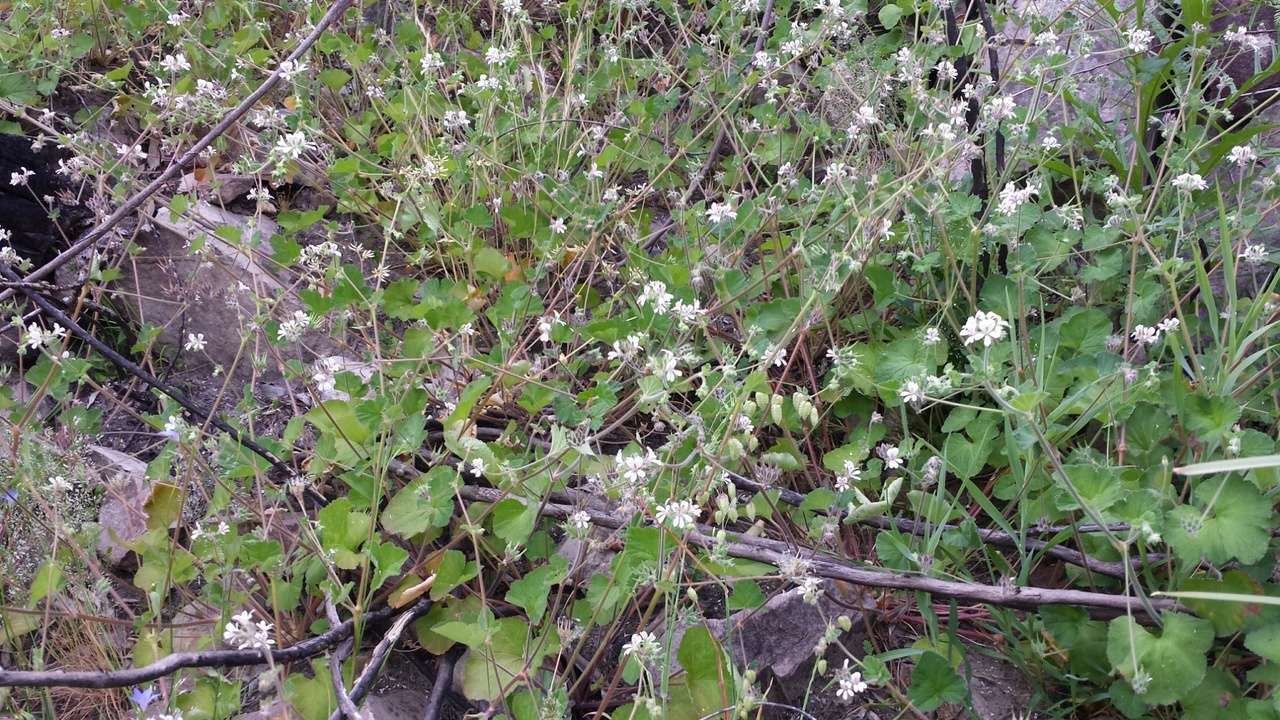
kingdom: Plantae
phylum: Tracheophyta
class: Magnoliopsida
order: Geraniales
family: Geraniaceae
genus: Pelargonium
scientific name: Pelargonium australe
